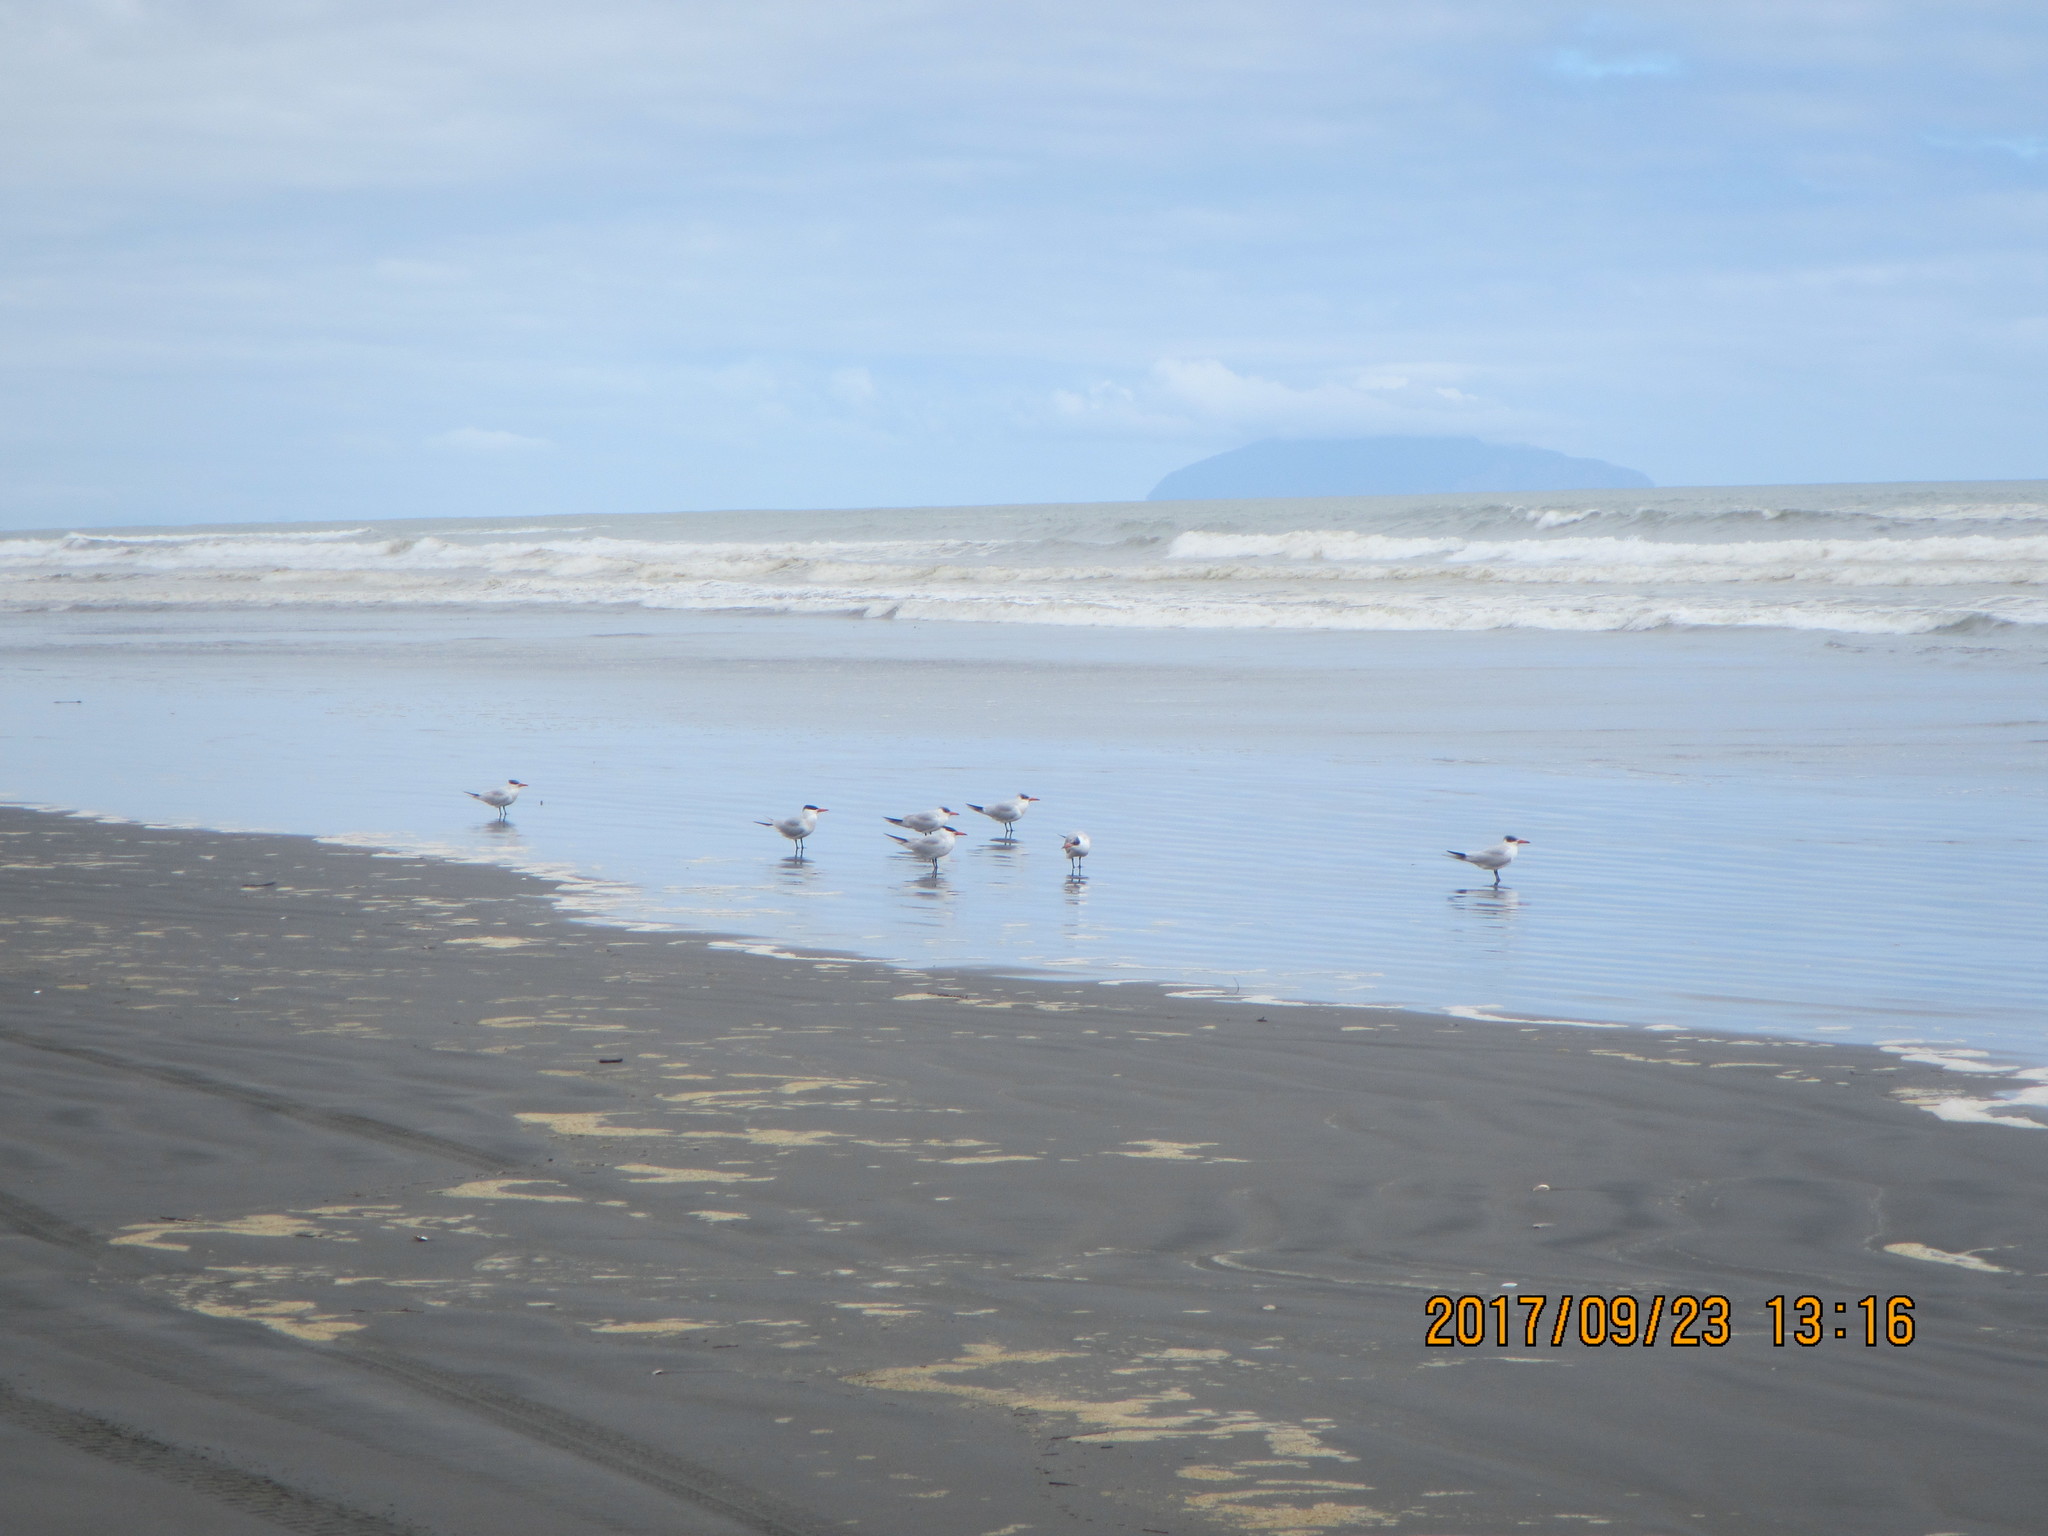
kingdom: Animalia
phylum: Chordata
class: Aves
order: Charadriiformes
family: Laridae
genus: Hydroprogne
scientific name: Hydroprogne caspia
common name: Caspian tern
